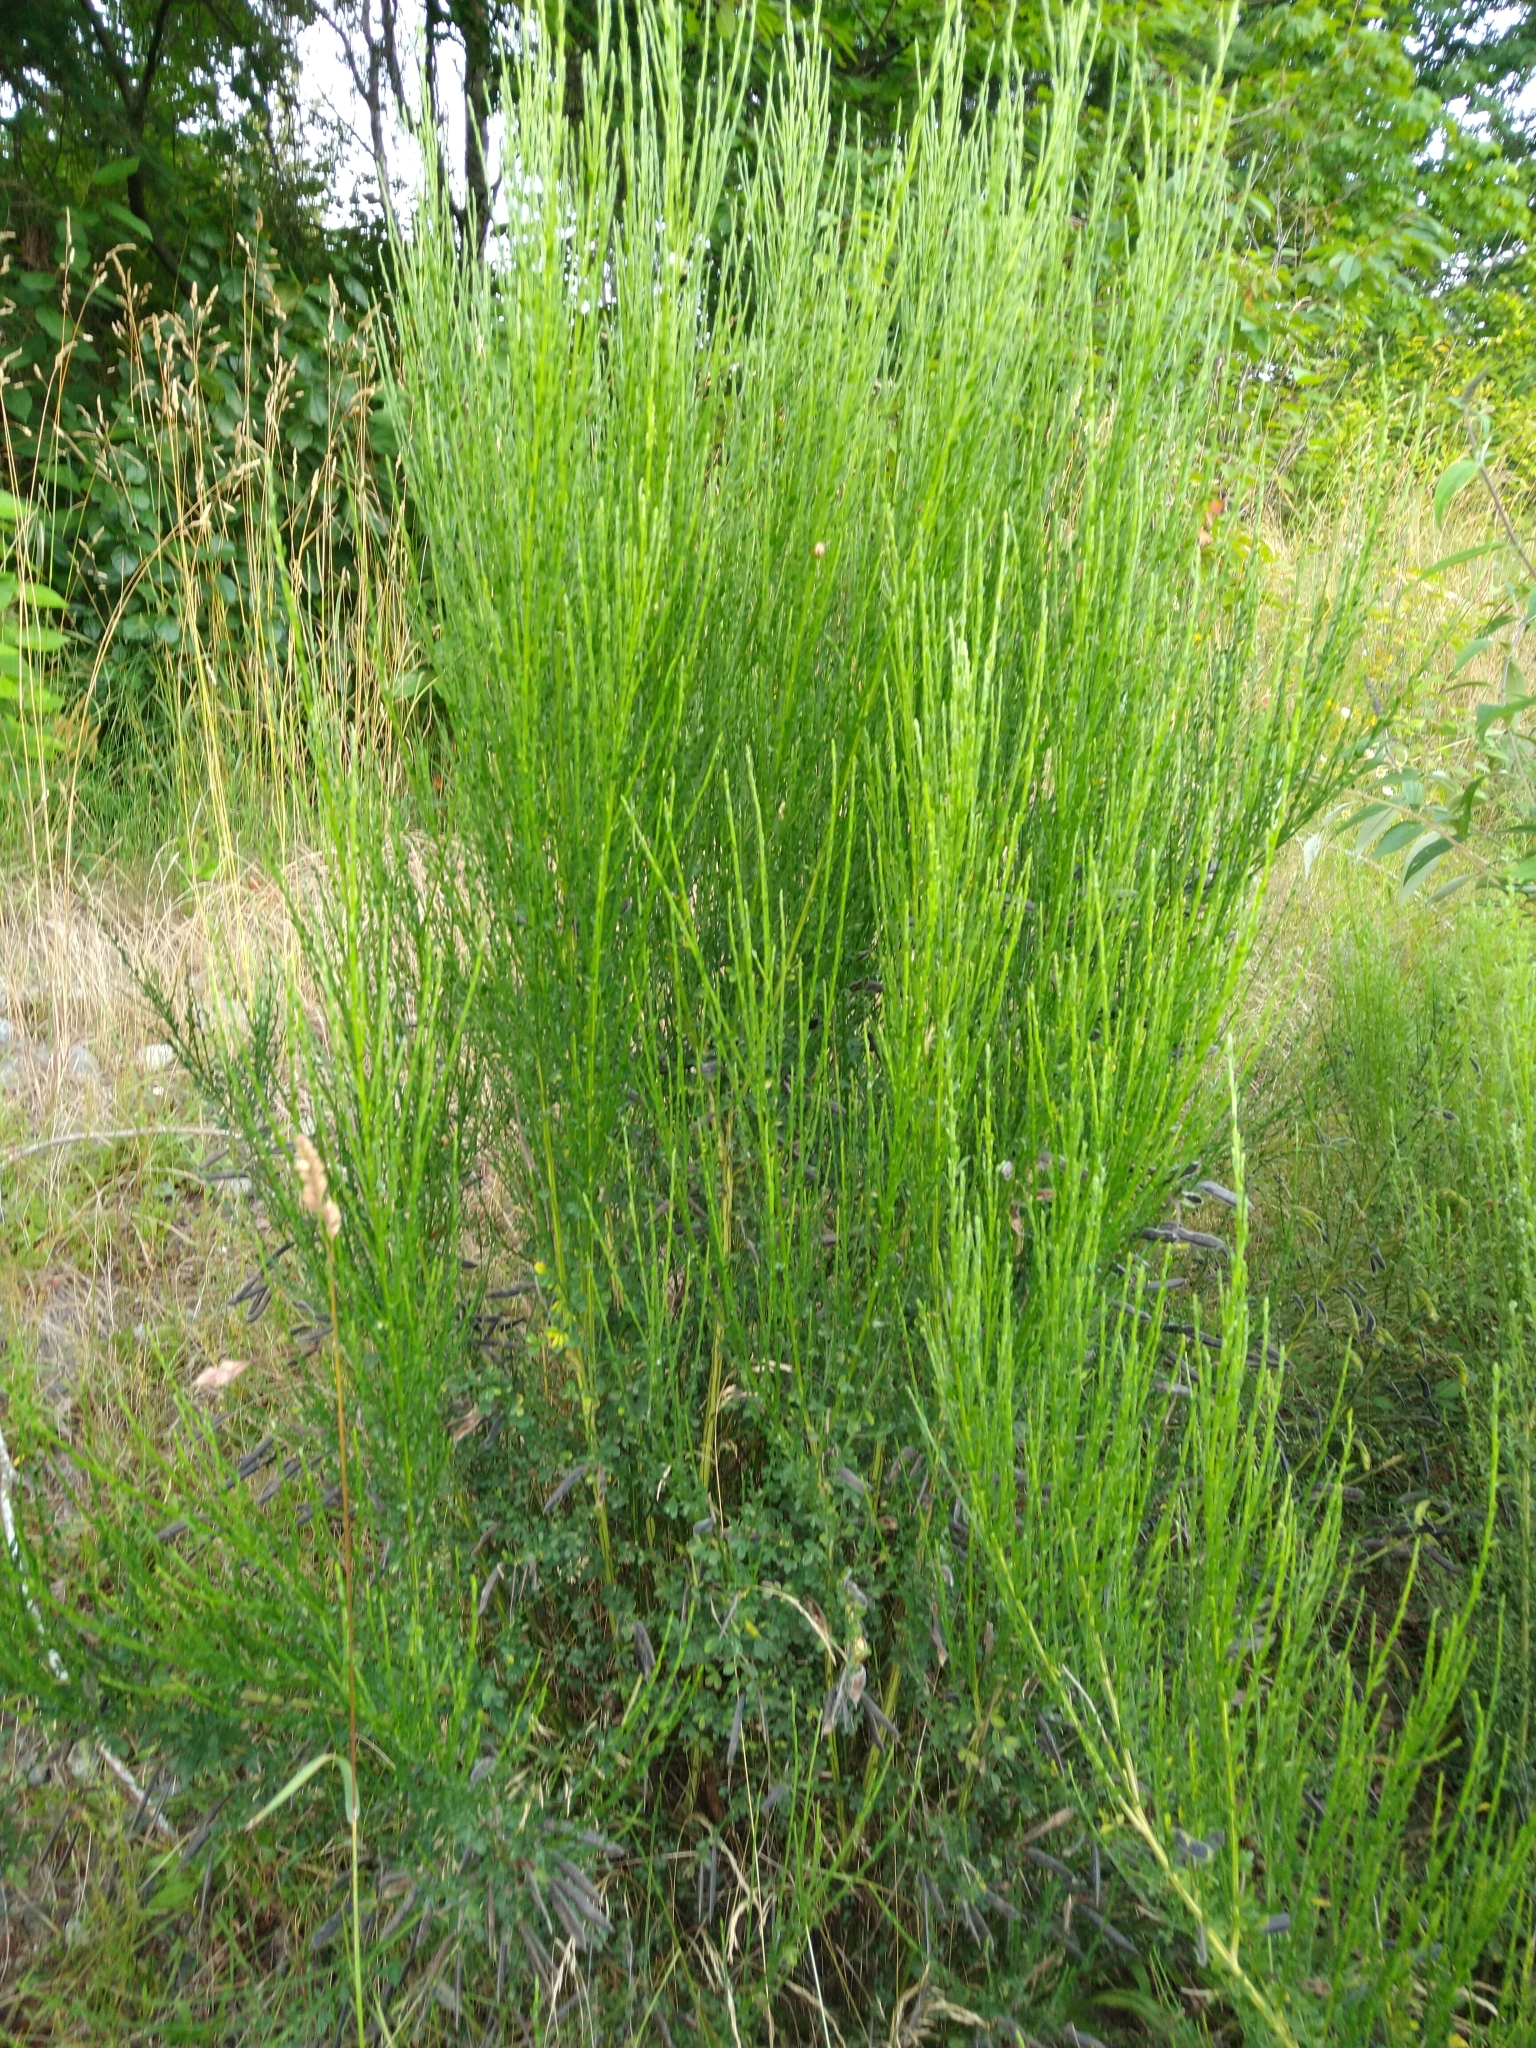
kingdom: Plantae
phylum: Tracheophyta
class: Magnoliopsida
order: Fabales
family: Fabaceae
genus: Cytisus
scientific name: Cytisus scoparius
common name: Scotch broom
